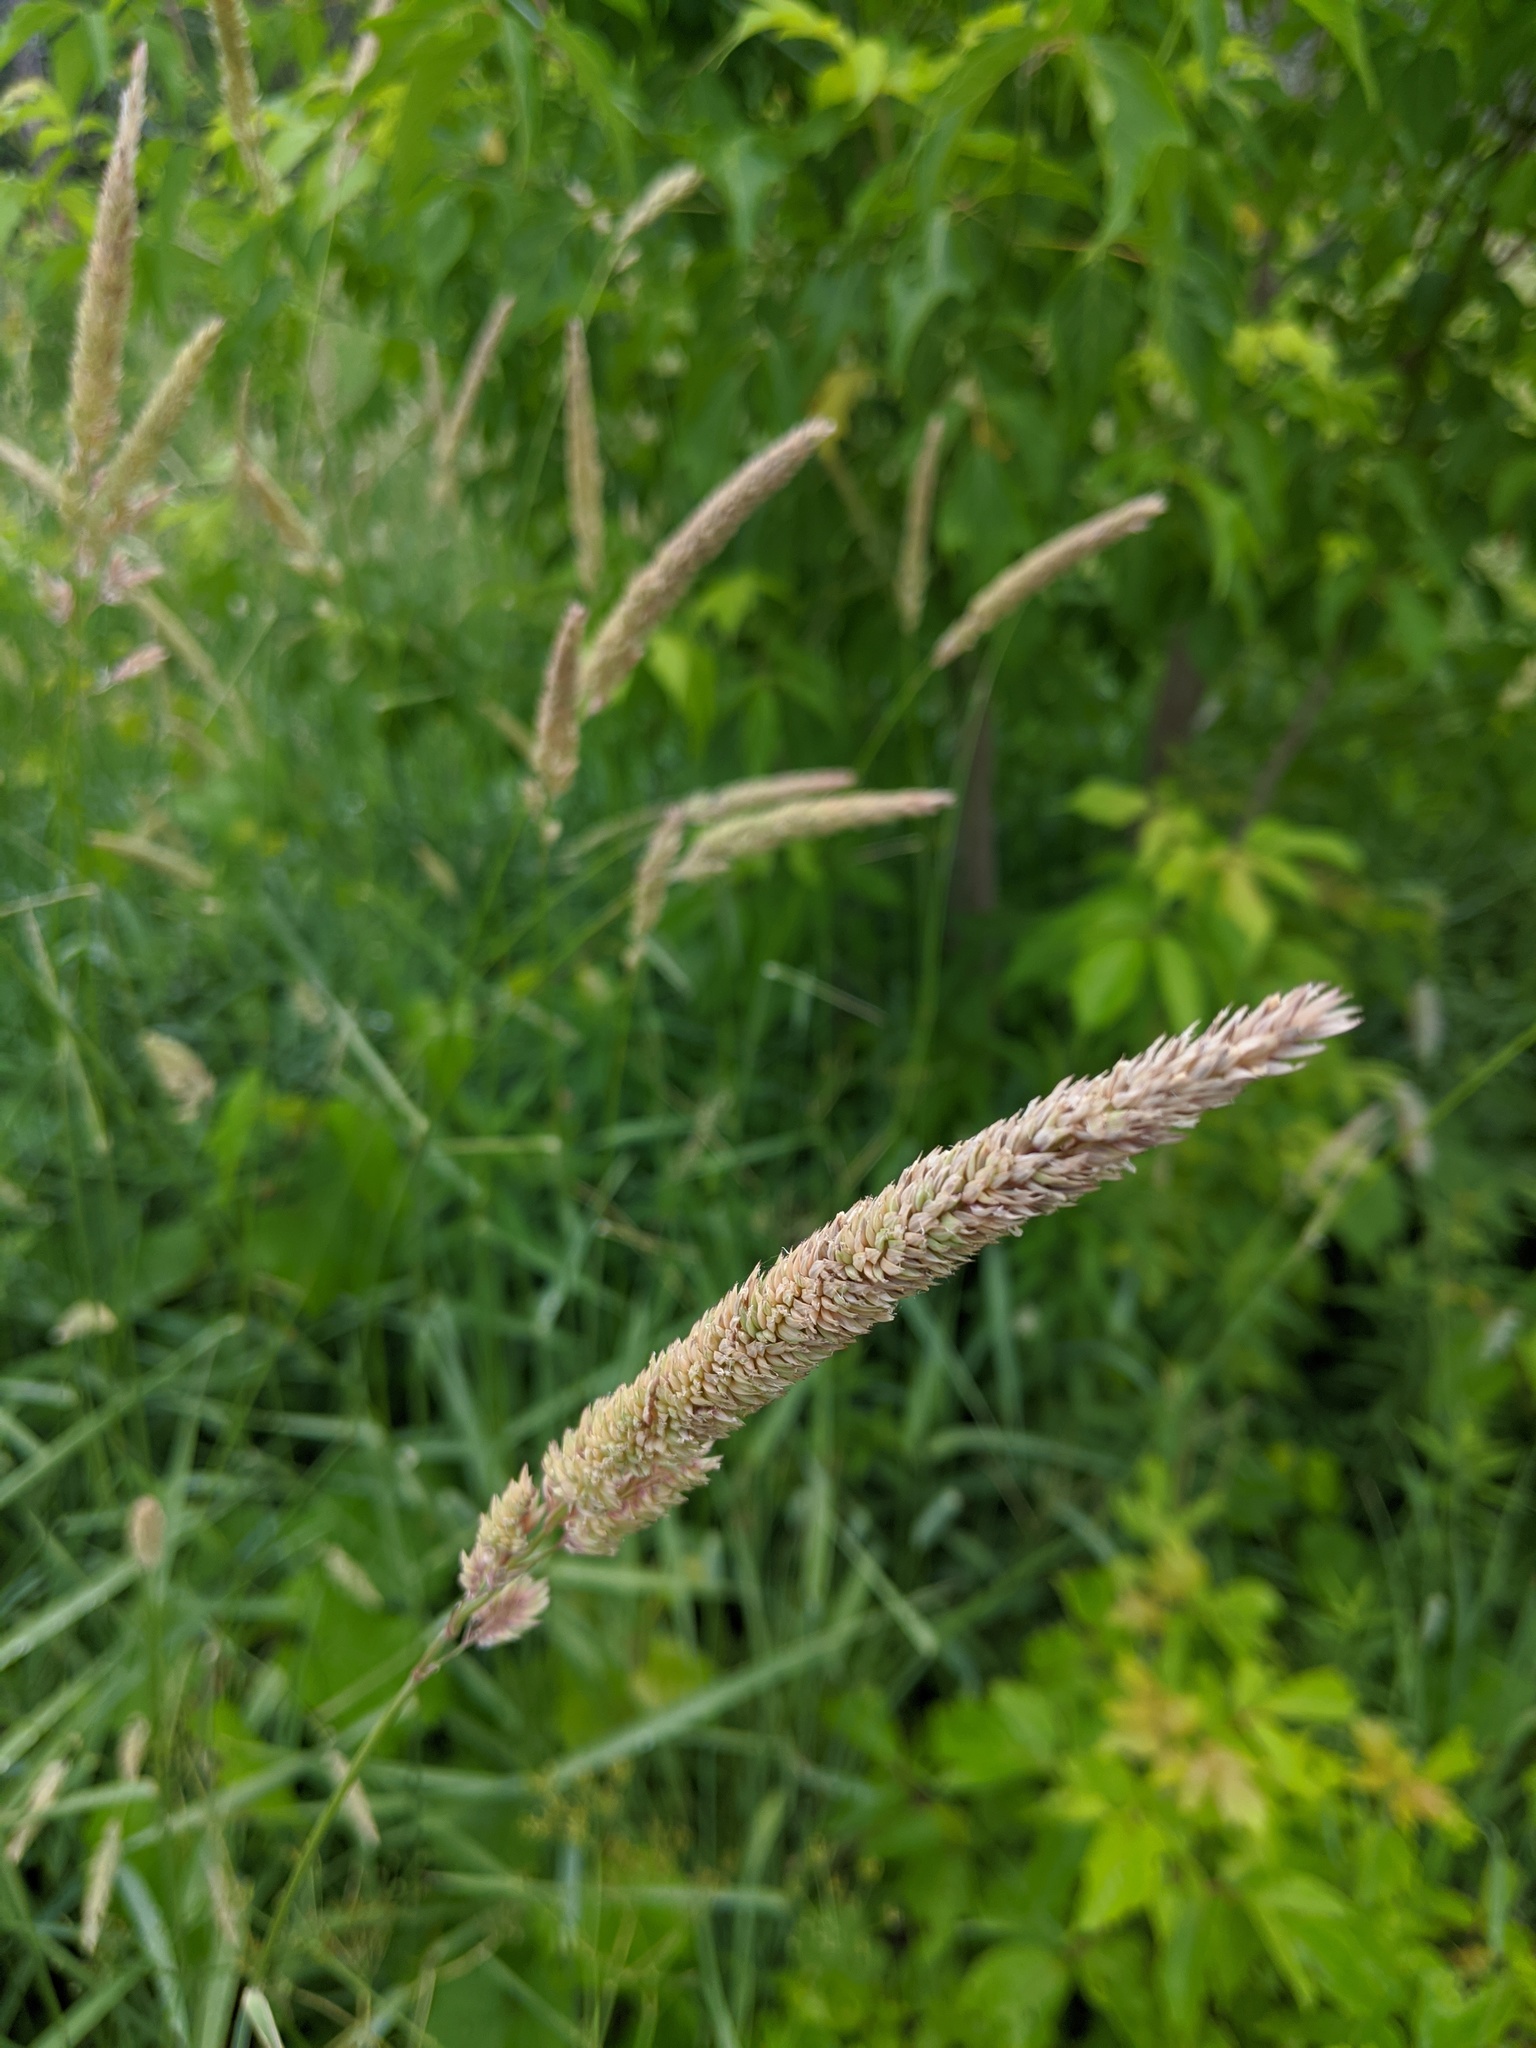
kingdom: Plantae
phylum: Tracheophyta
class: Liliopsida
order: Poales
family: Poaceae
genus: Phalaris
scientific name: Phalaris arundinacea
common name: Reed canary-grass
